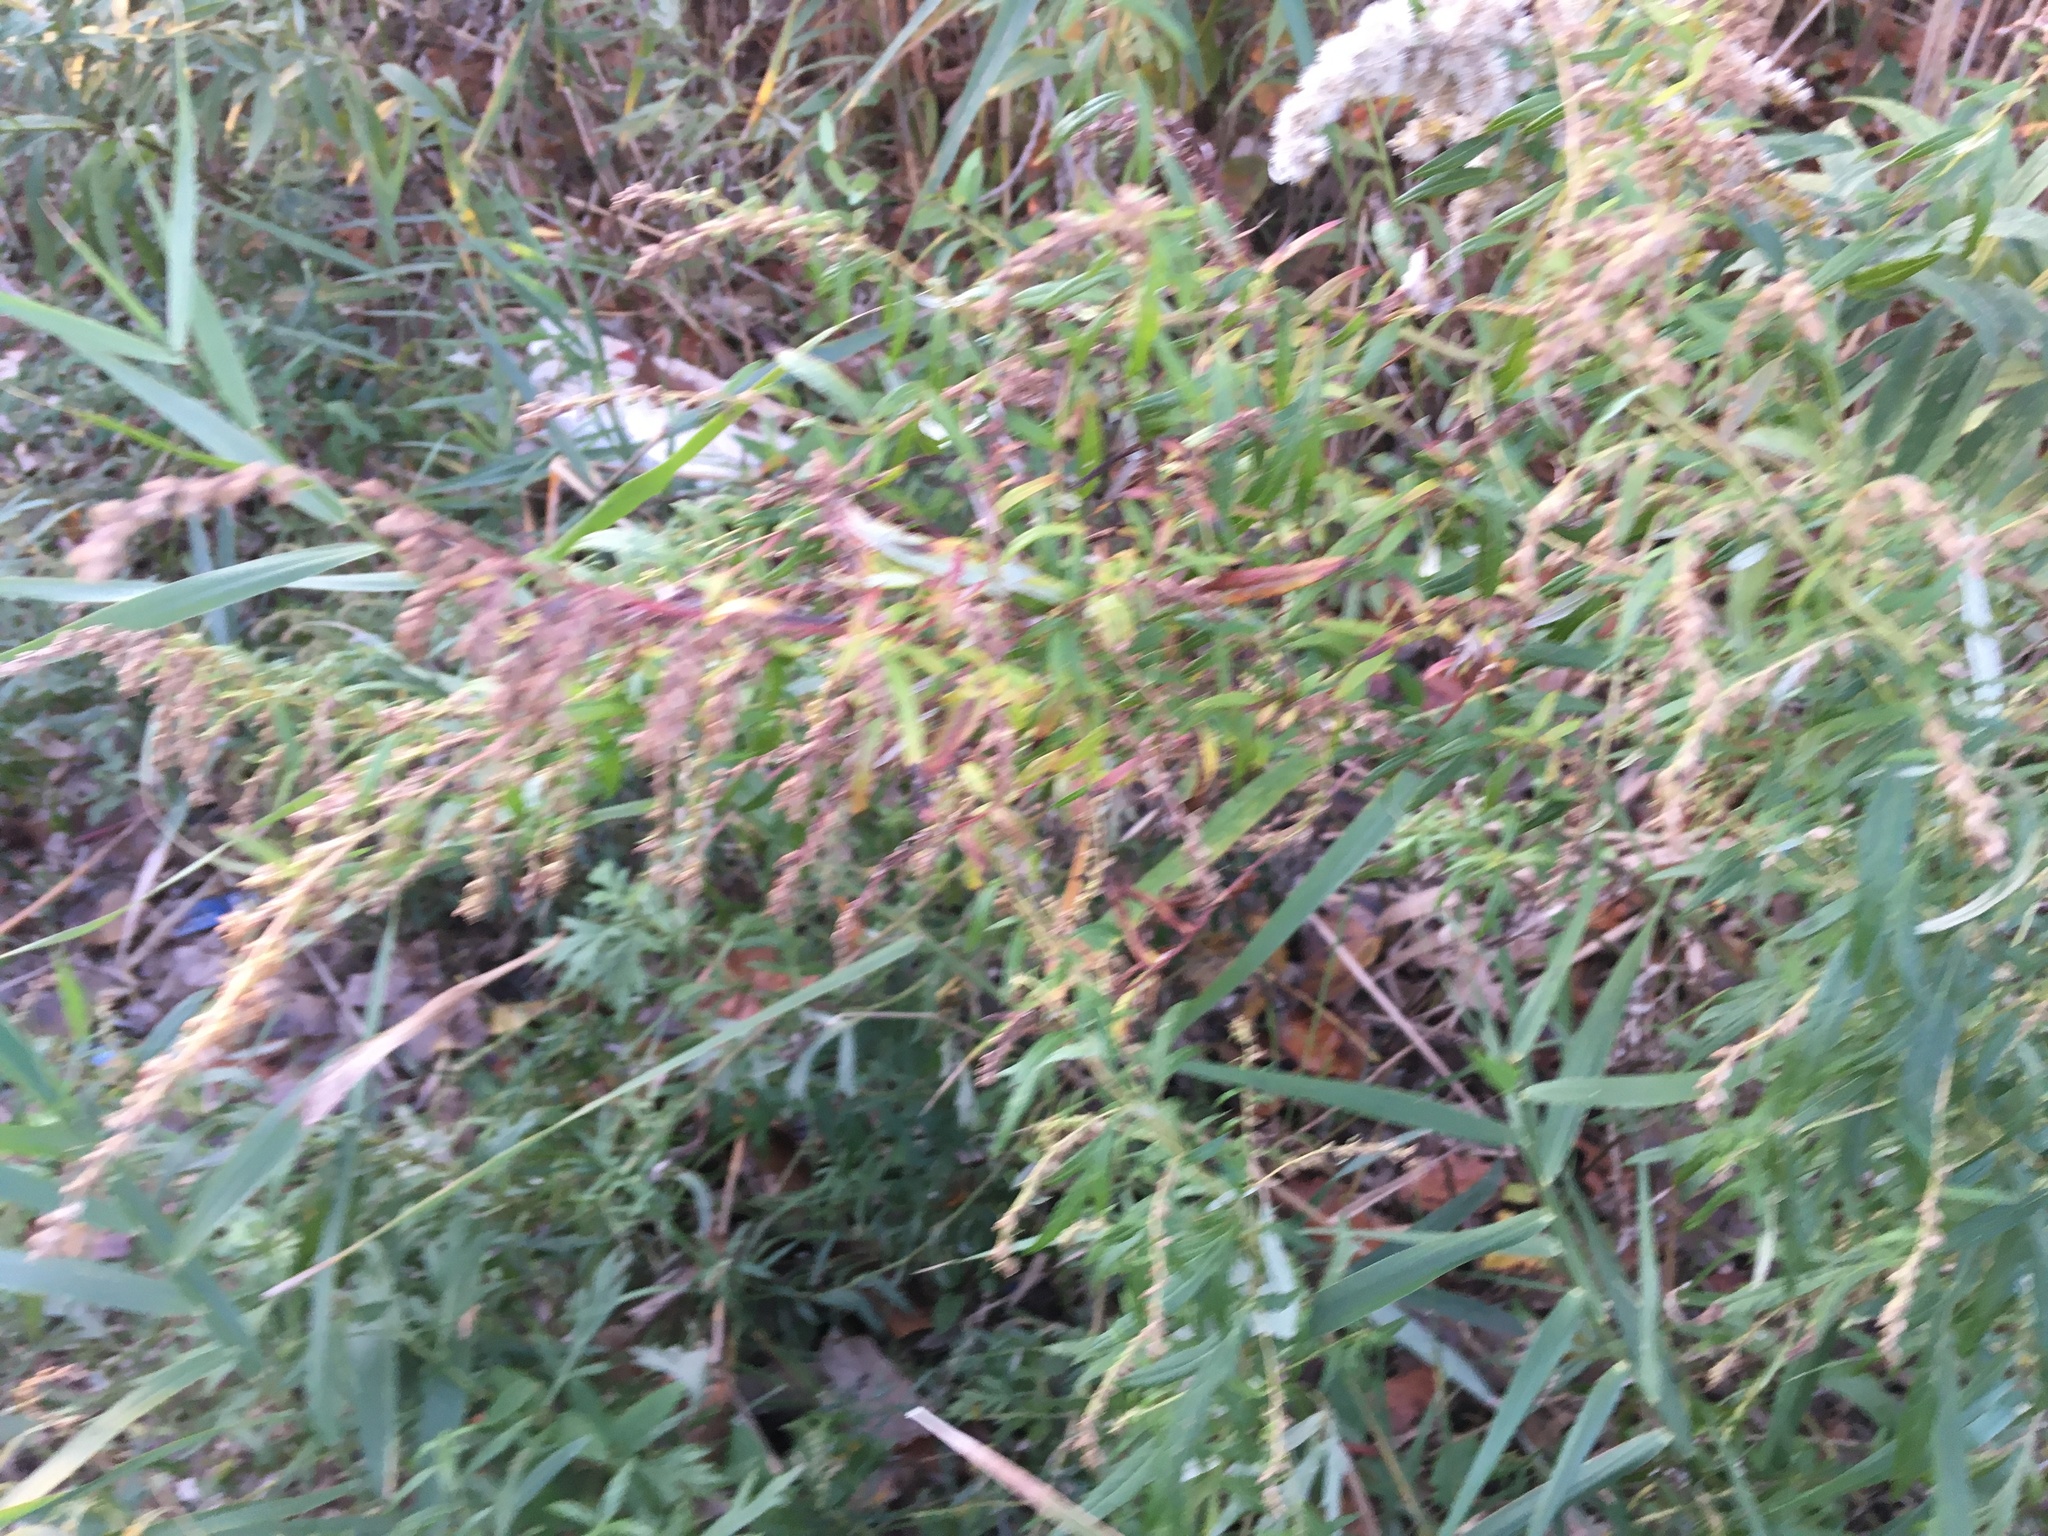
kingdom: Plantae
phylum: Tracheophyta
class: Magnoliopsida
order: Asterales
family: Asteraceae
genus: Artemisia
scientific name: Artemisia vulgaris
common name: Mugwort
